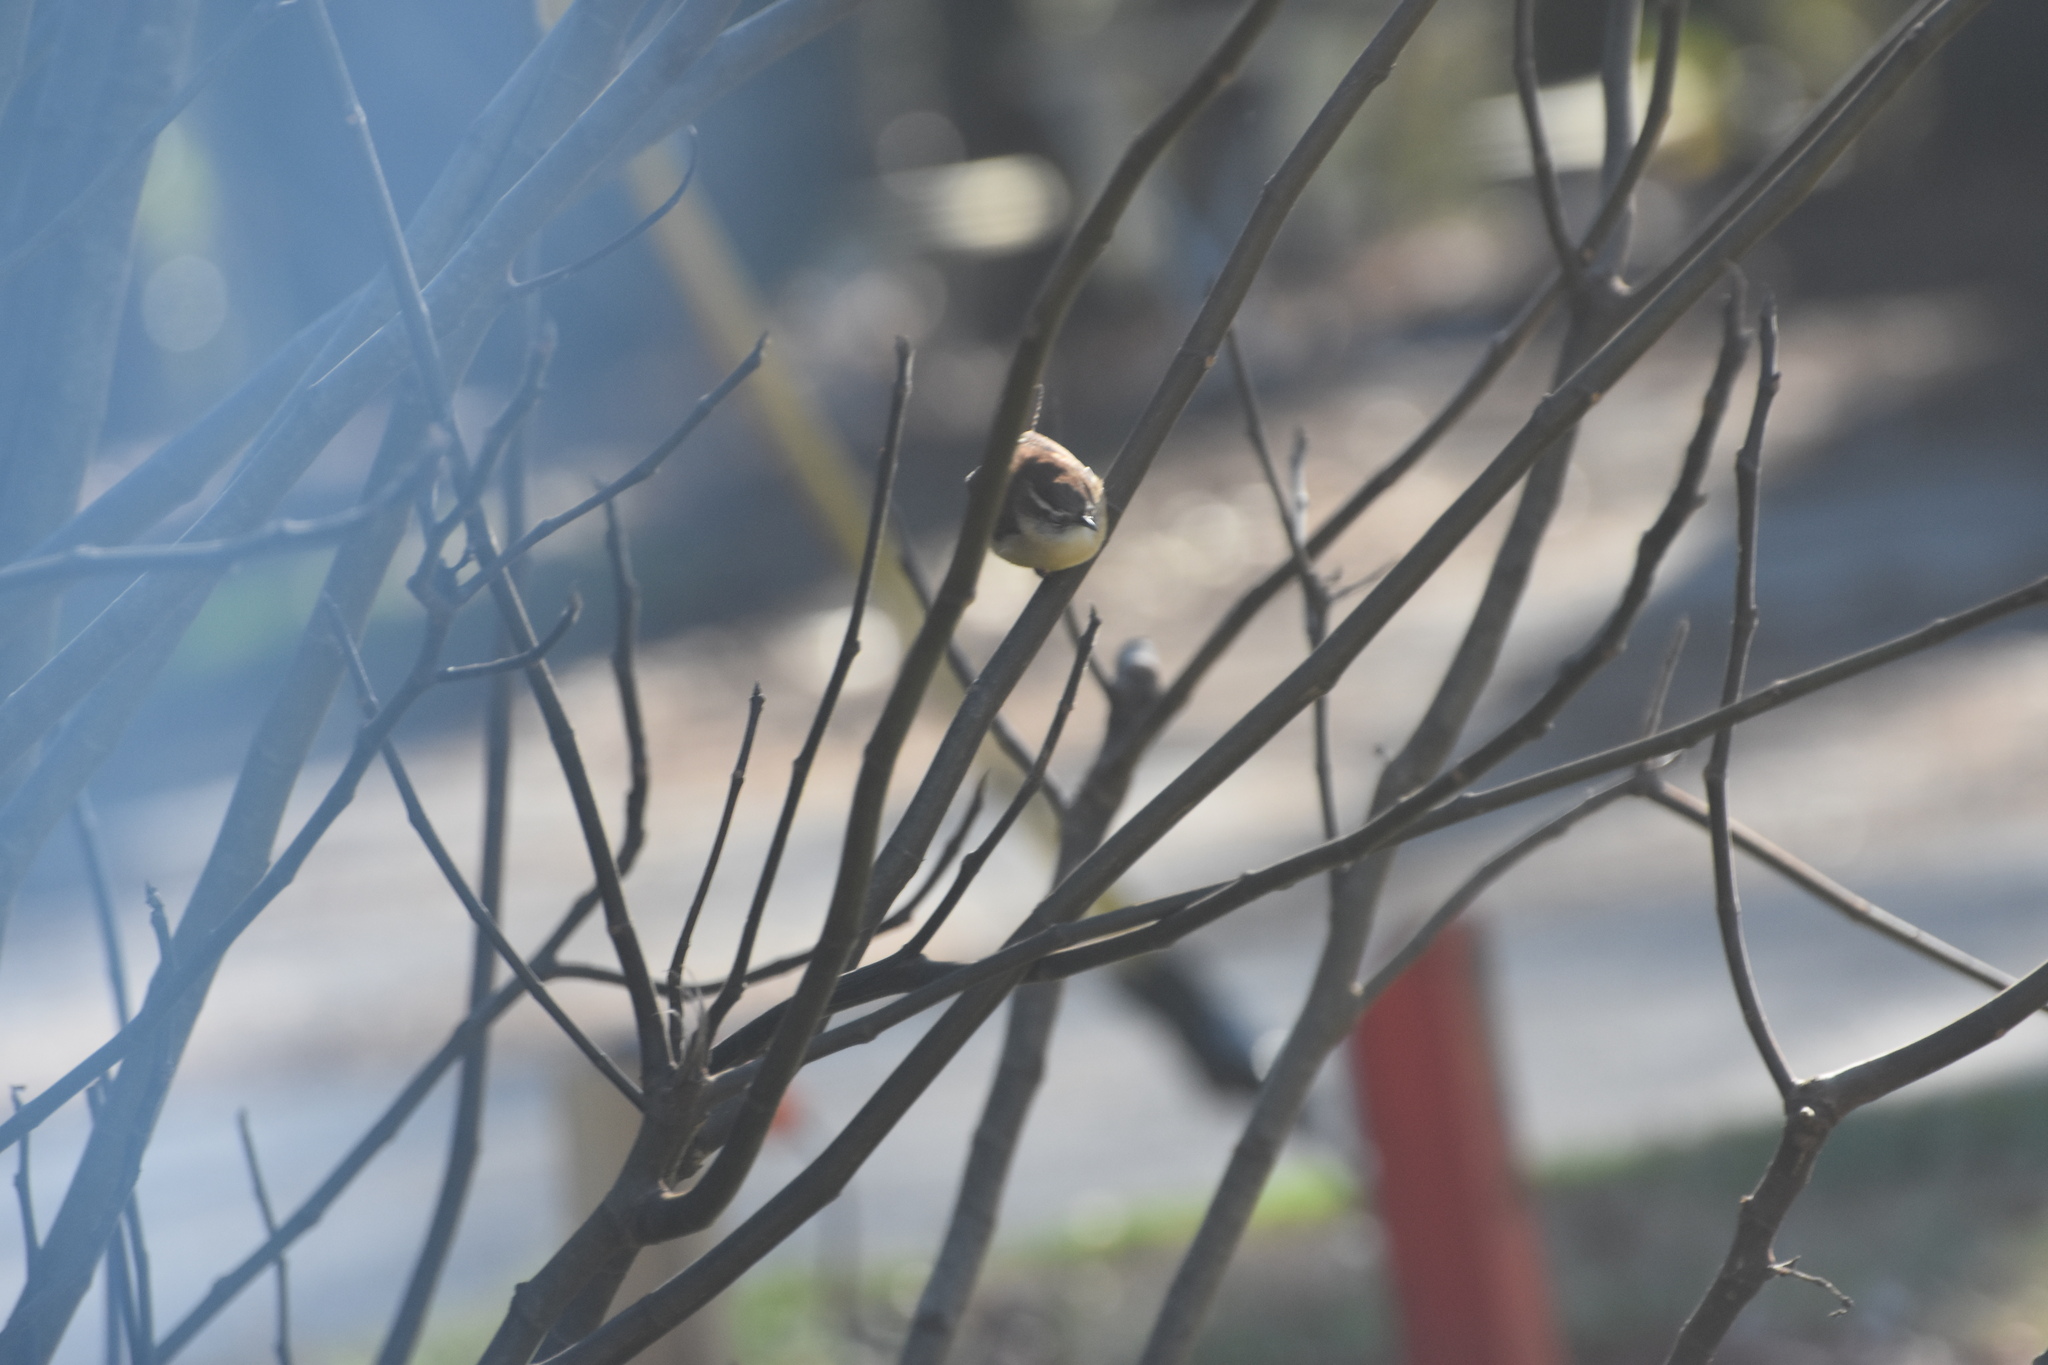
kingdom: Animalia
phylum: Chordata
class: Aves
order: Passeriformes
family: Troglodytidae
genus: Thryothorus
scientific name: Thryothorus ludovicianus
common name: Carolina wren
